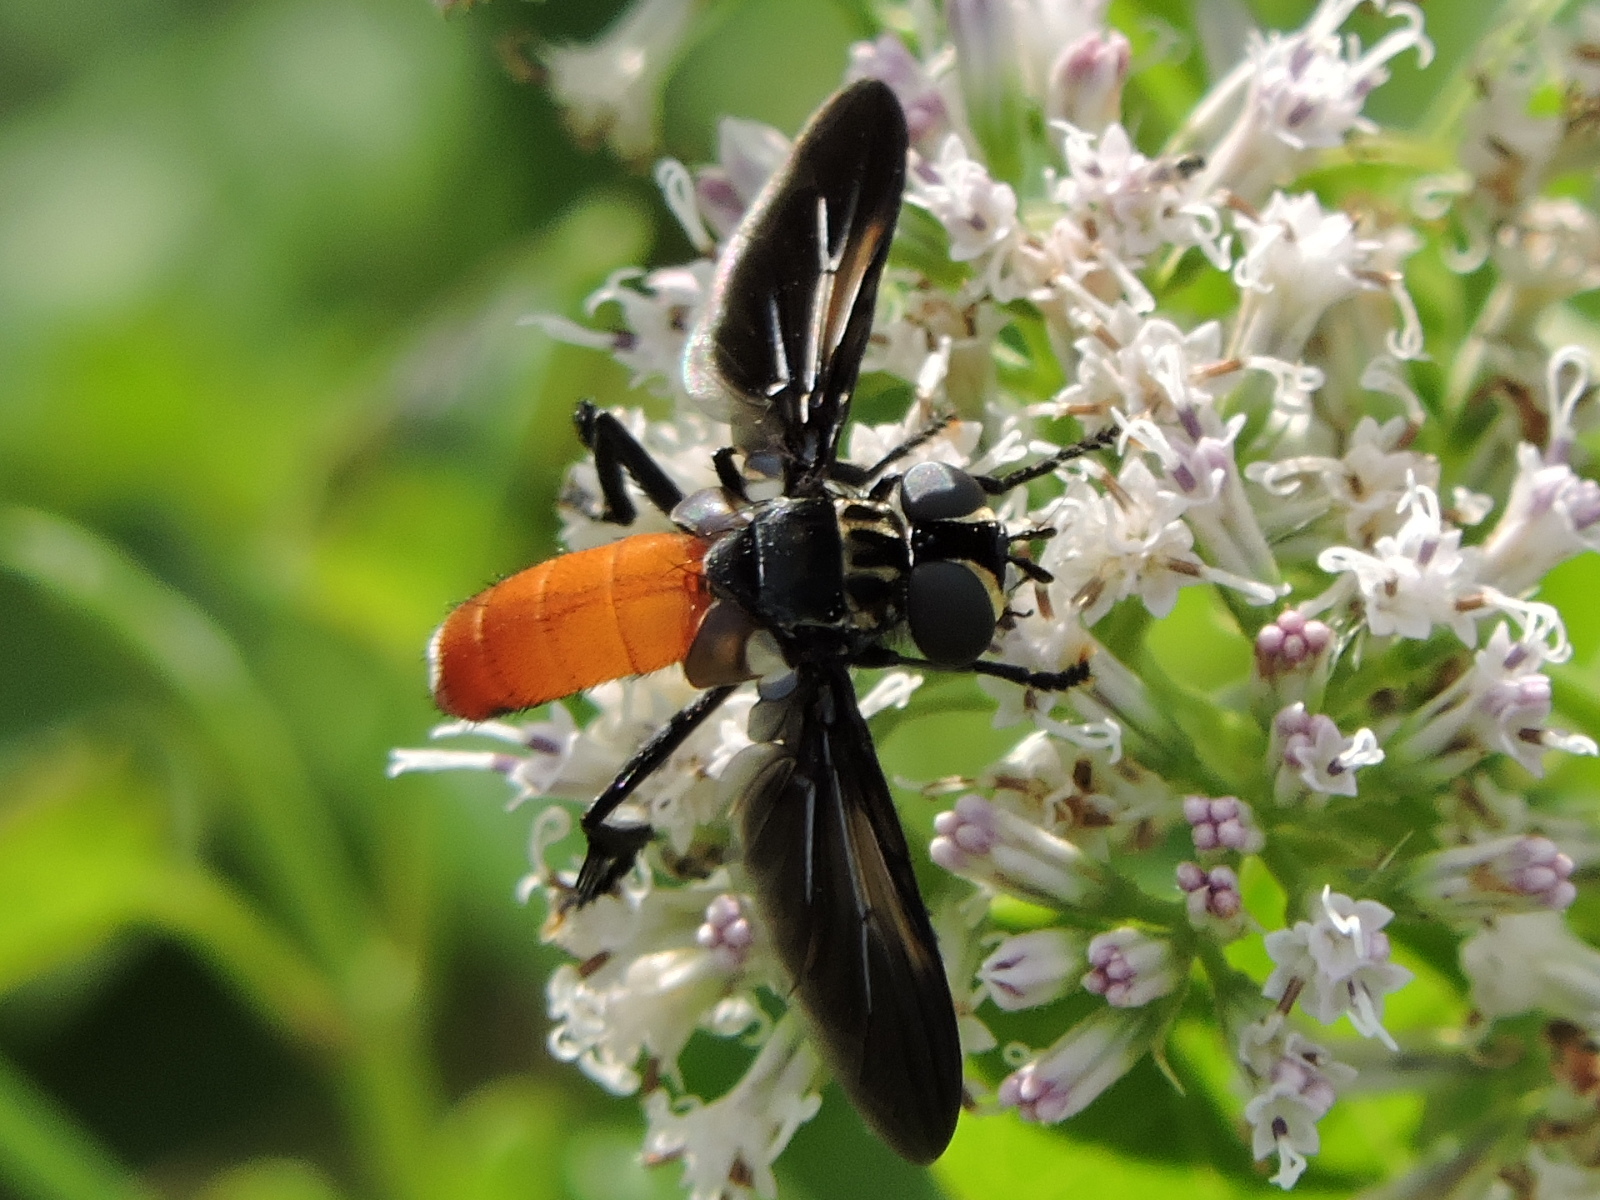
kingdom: Animalia
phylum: Arthropoda
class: Insecta
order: Diptera
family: Tachinidae
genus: Trichopoda
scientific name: Trichopoda pennipes
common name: Tachinid fly
